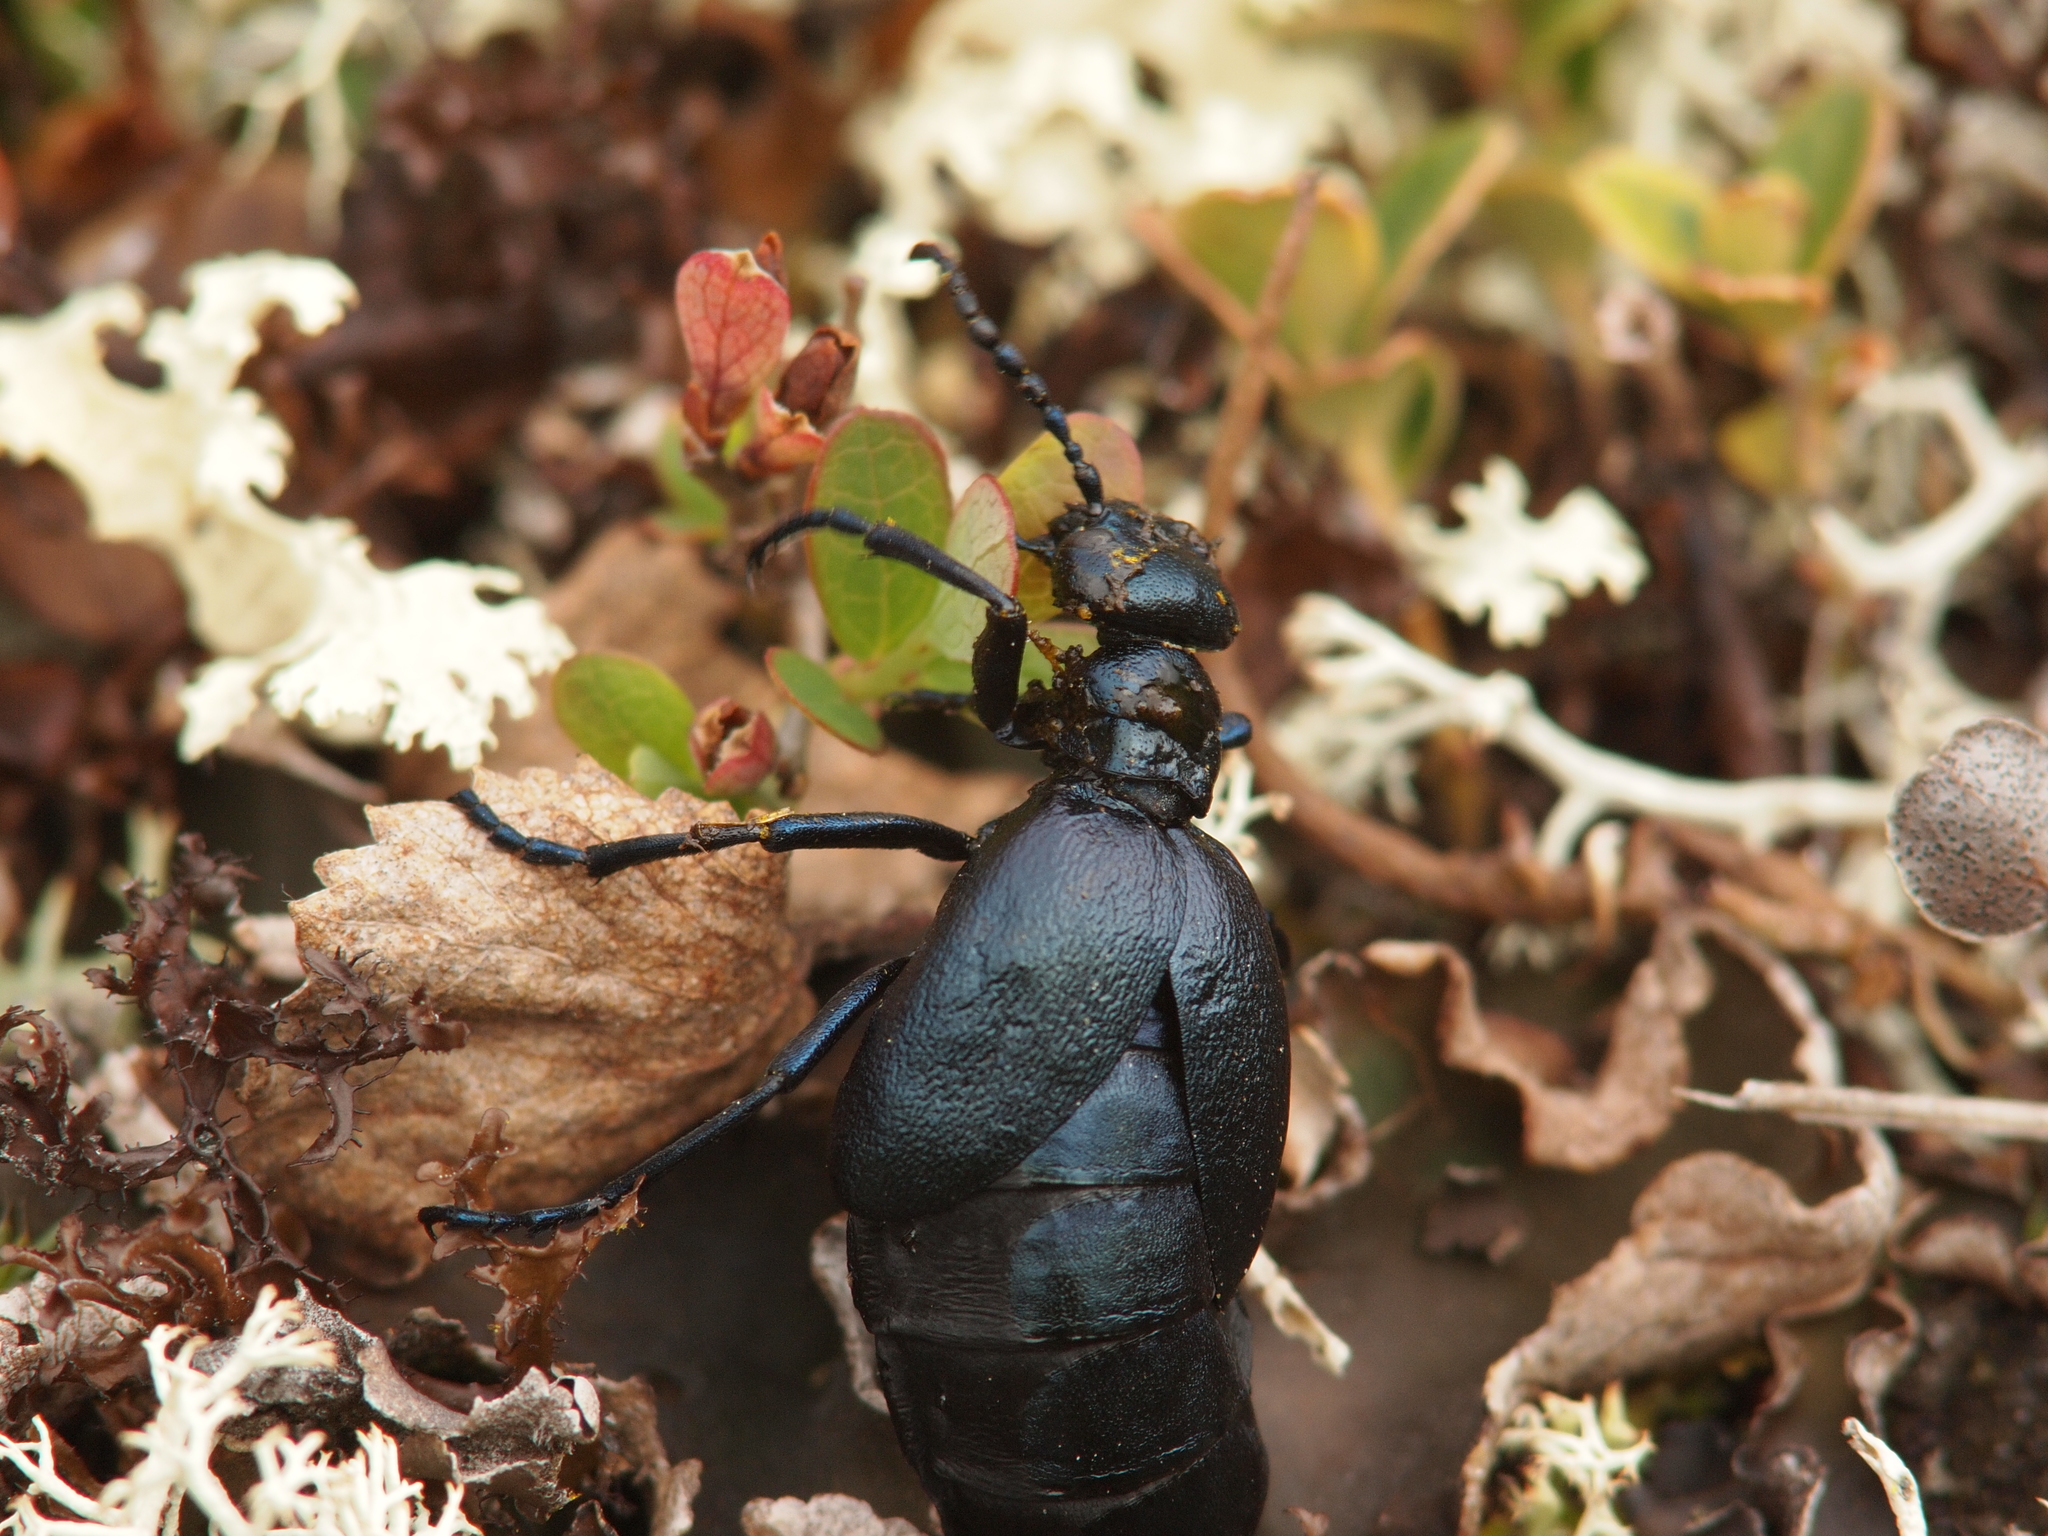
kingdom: Animalia
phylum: Arthropoda
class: Insecta
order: Coleoptera
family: Meloidae
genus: Meloe
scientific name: Meloe violaceus
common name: Violet oil-beetle
